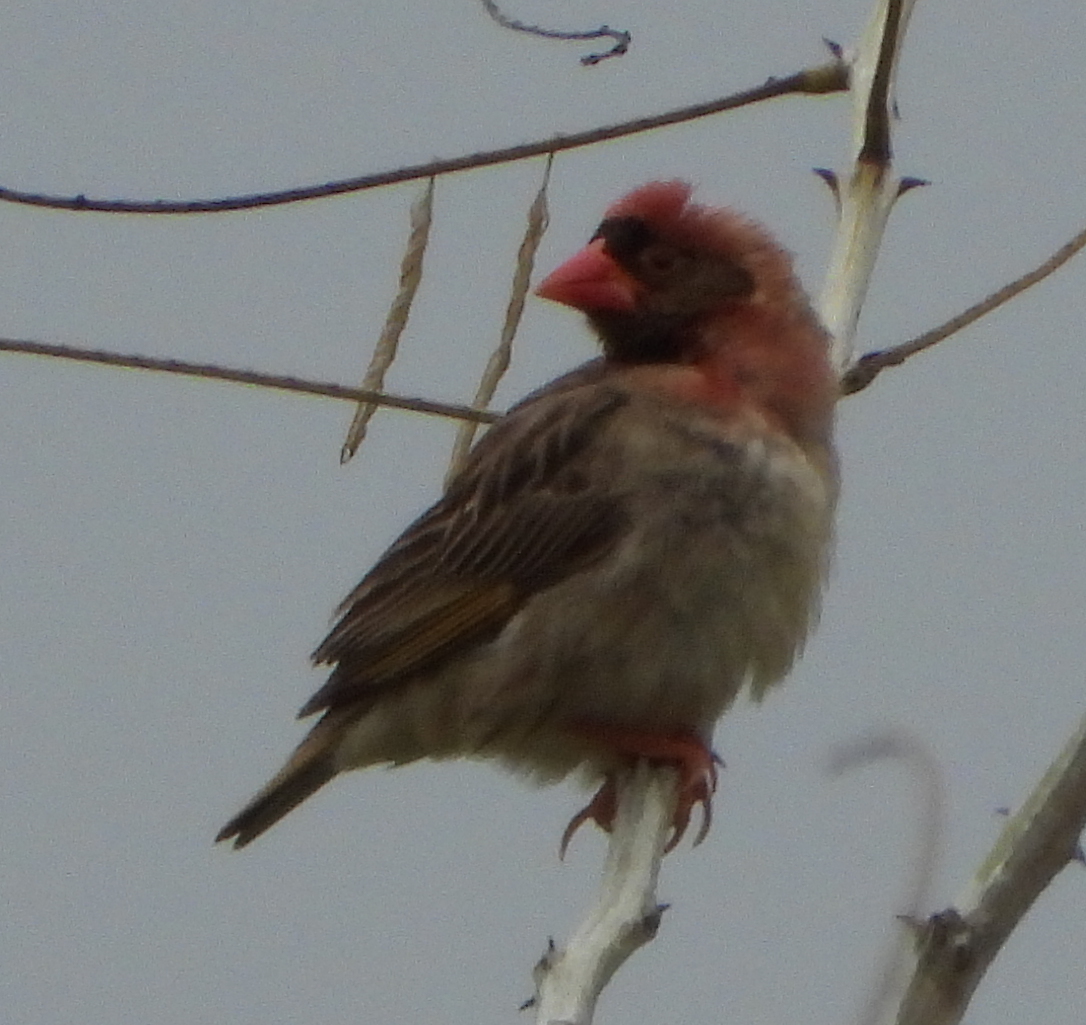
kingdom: Animalia
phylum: Chordata
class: Aves
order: Passeriformes
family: Ploceidae
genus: Quelea
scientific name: Quelea quelea
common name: Red-billed quelea
